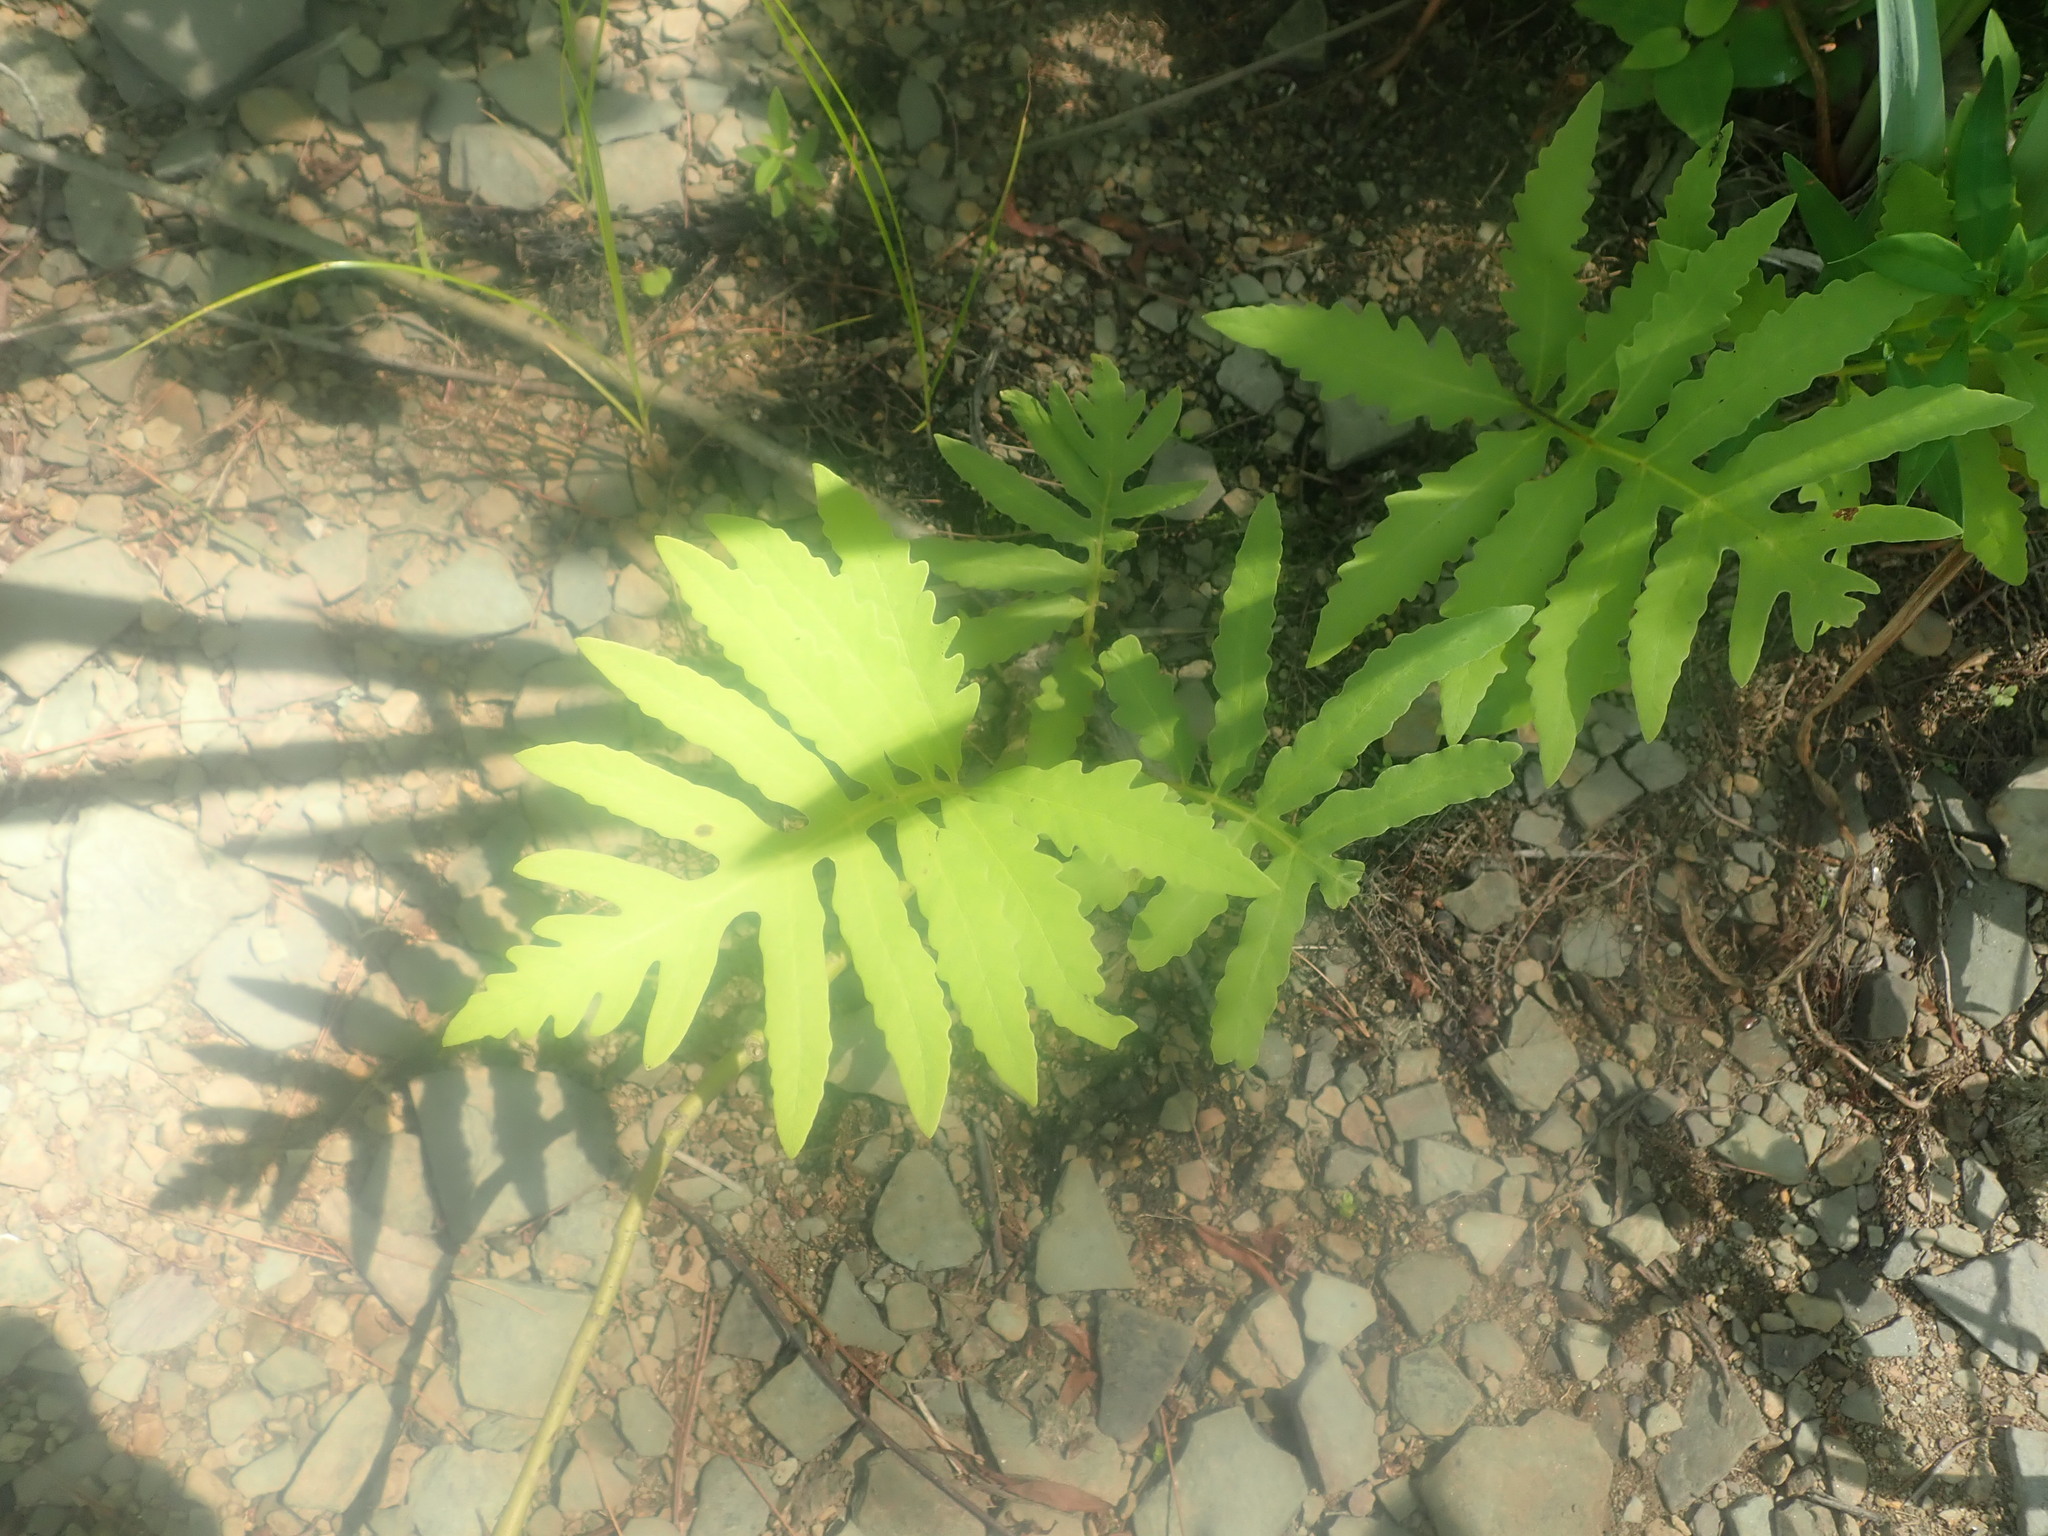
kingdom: Plantae
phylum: Tracheophyta
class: Polypodiopsida
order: Polypodiales
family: Onocleaceae
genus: Onoclea
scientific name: Onoclea sensibilis
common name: Sensitive fern
